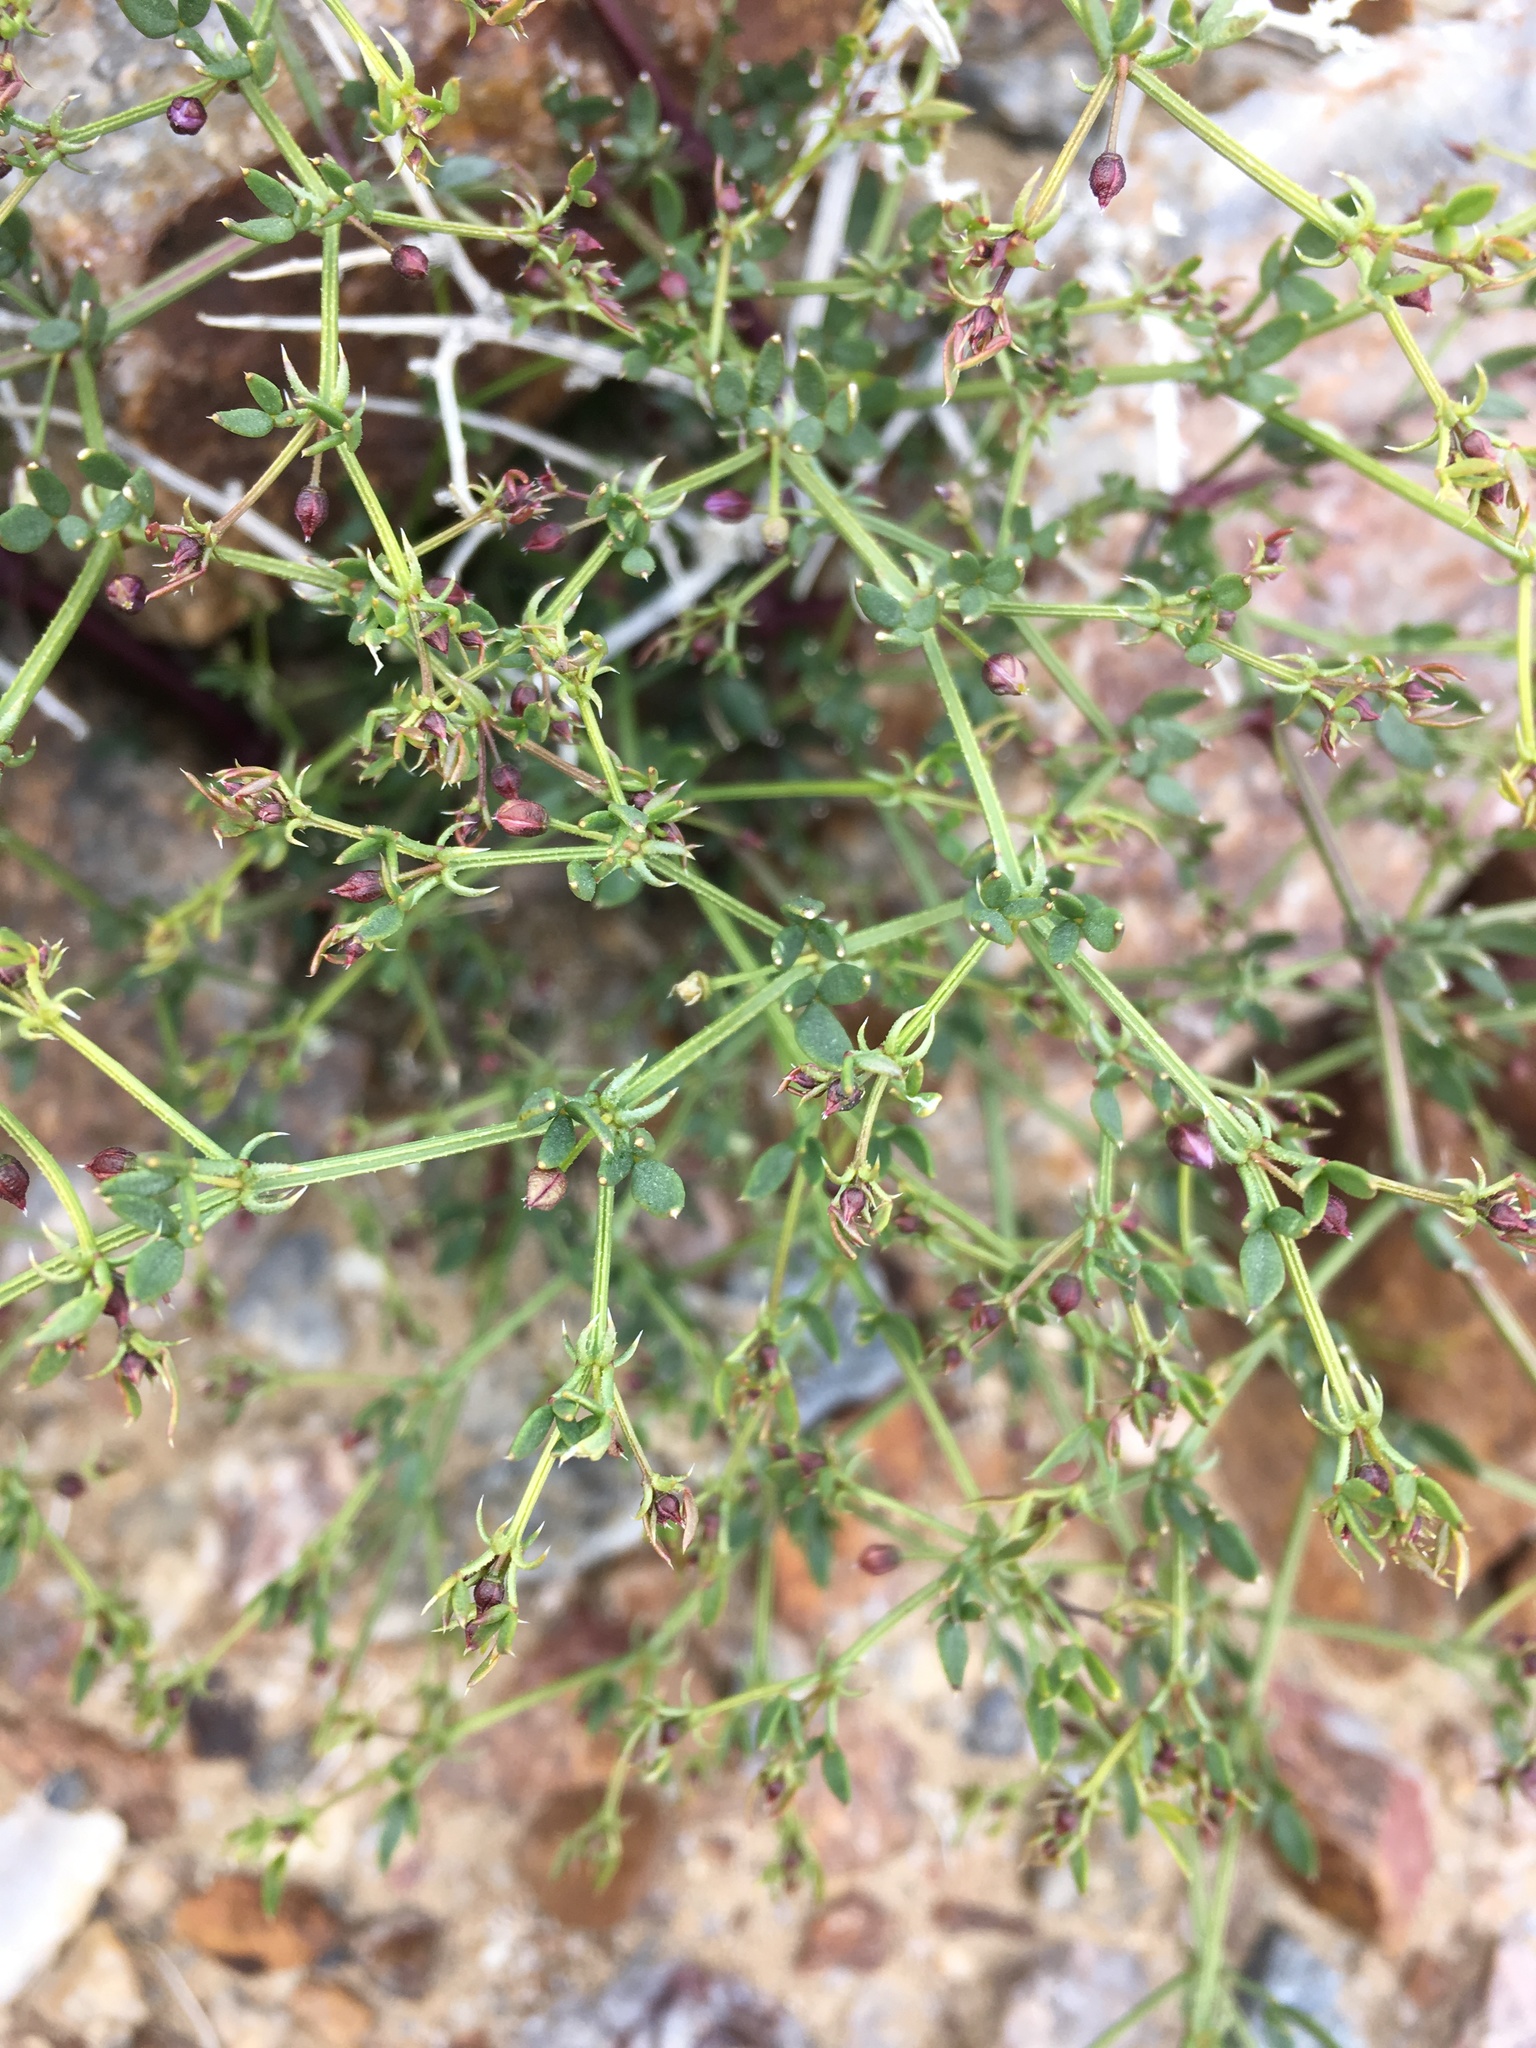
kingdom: Plantae
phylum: Tracheophyta
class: Magnoliopsida
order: Zygophyllales
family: Zygophyllaceae
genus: Fagonia
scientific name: Fagonia laevis
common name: California fagonbush
